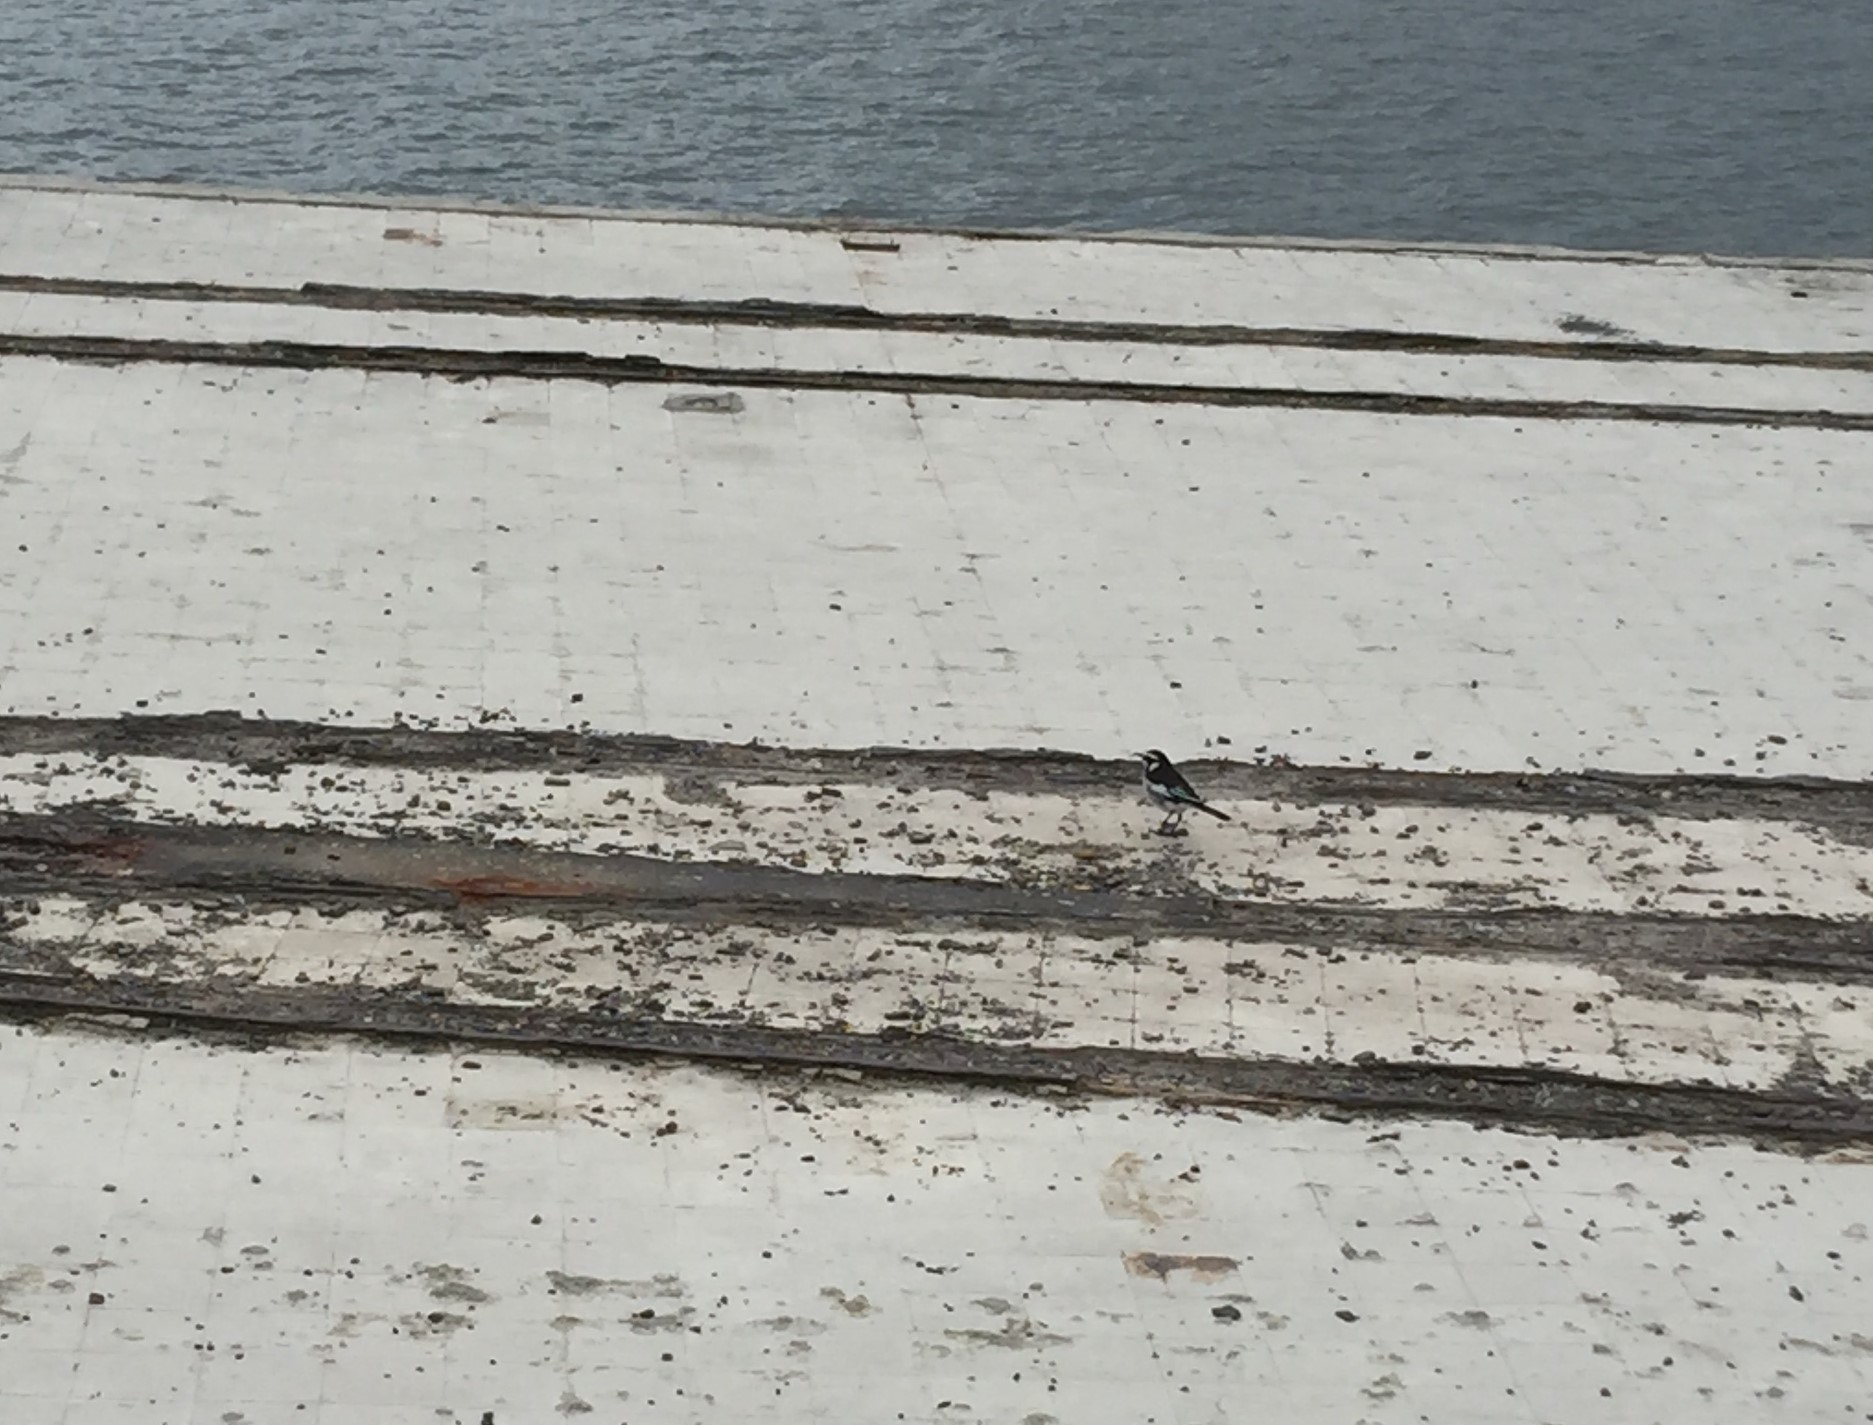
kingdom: Animalia
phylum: Chordata
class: Aves
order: Passeriformes
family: Motacillidae
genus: Motacilla
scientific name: Motacilla aguimp
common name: African pied wagtail
